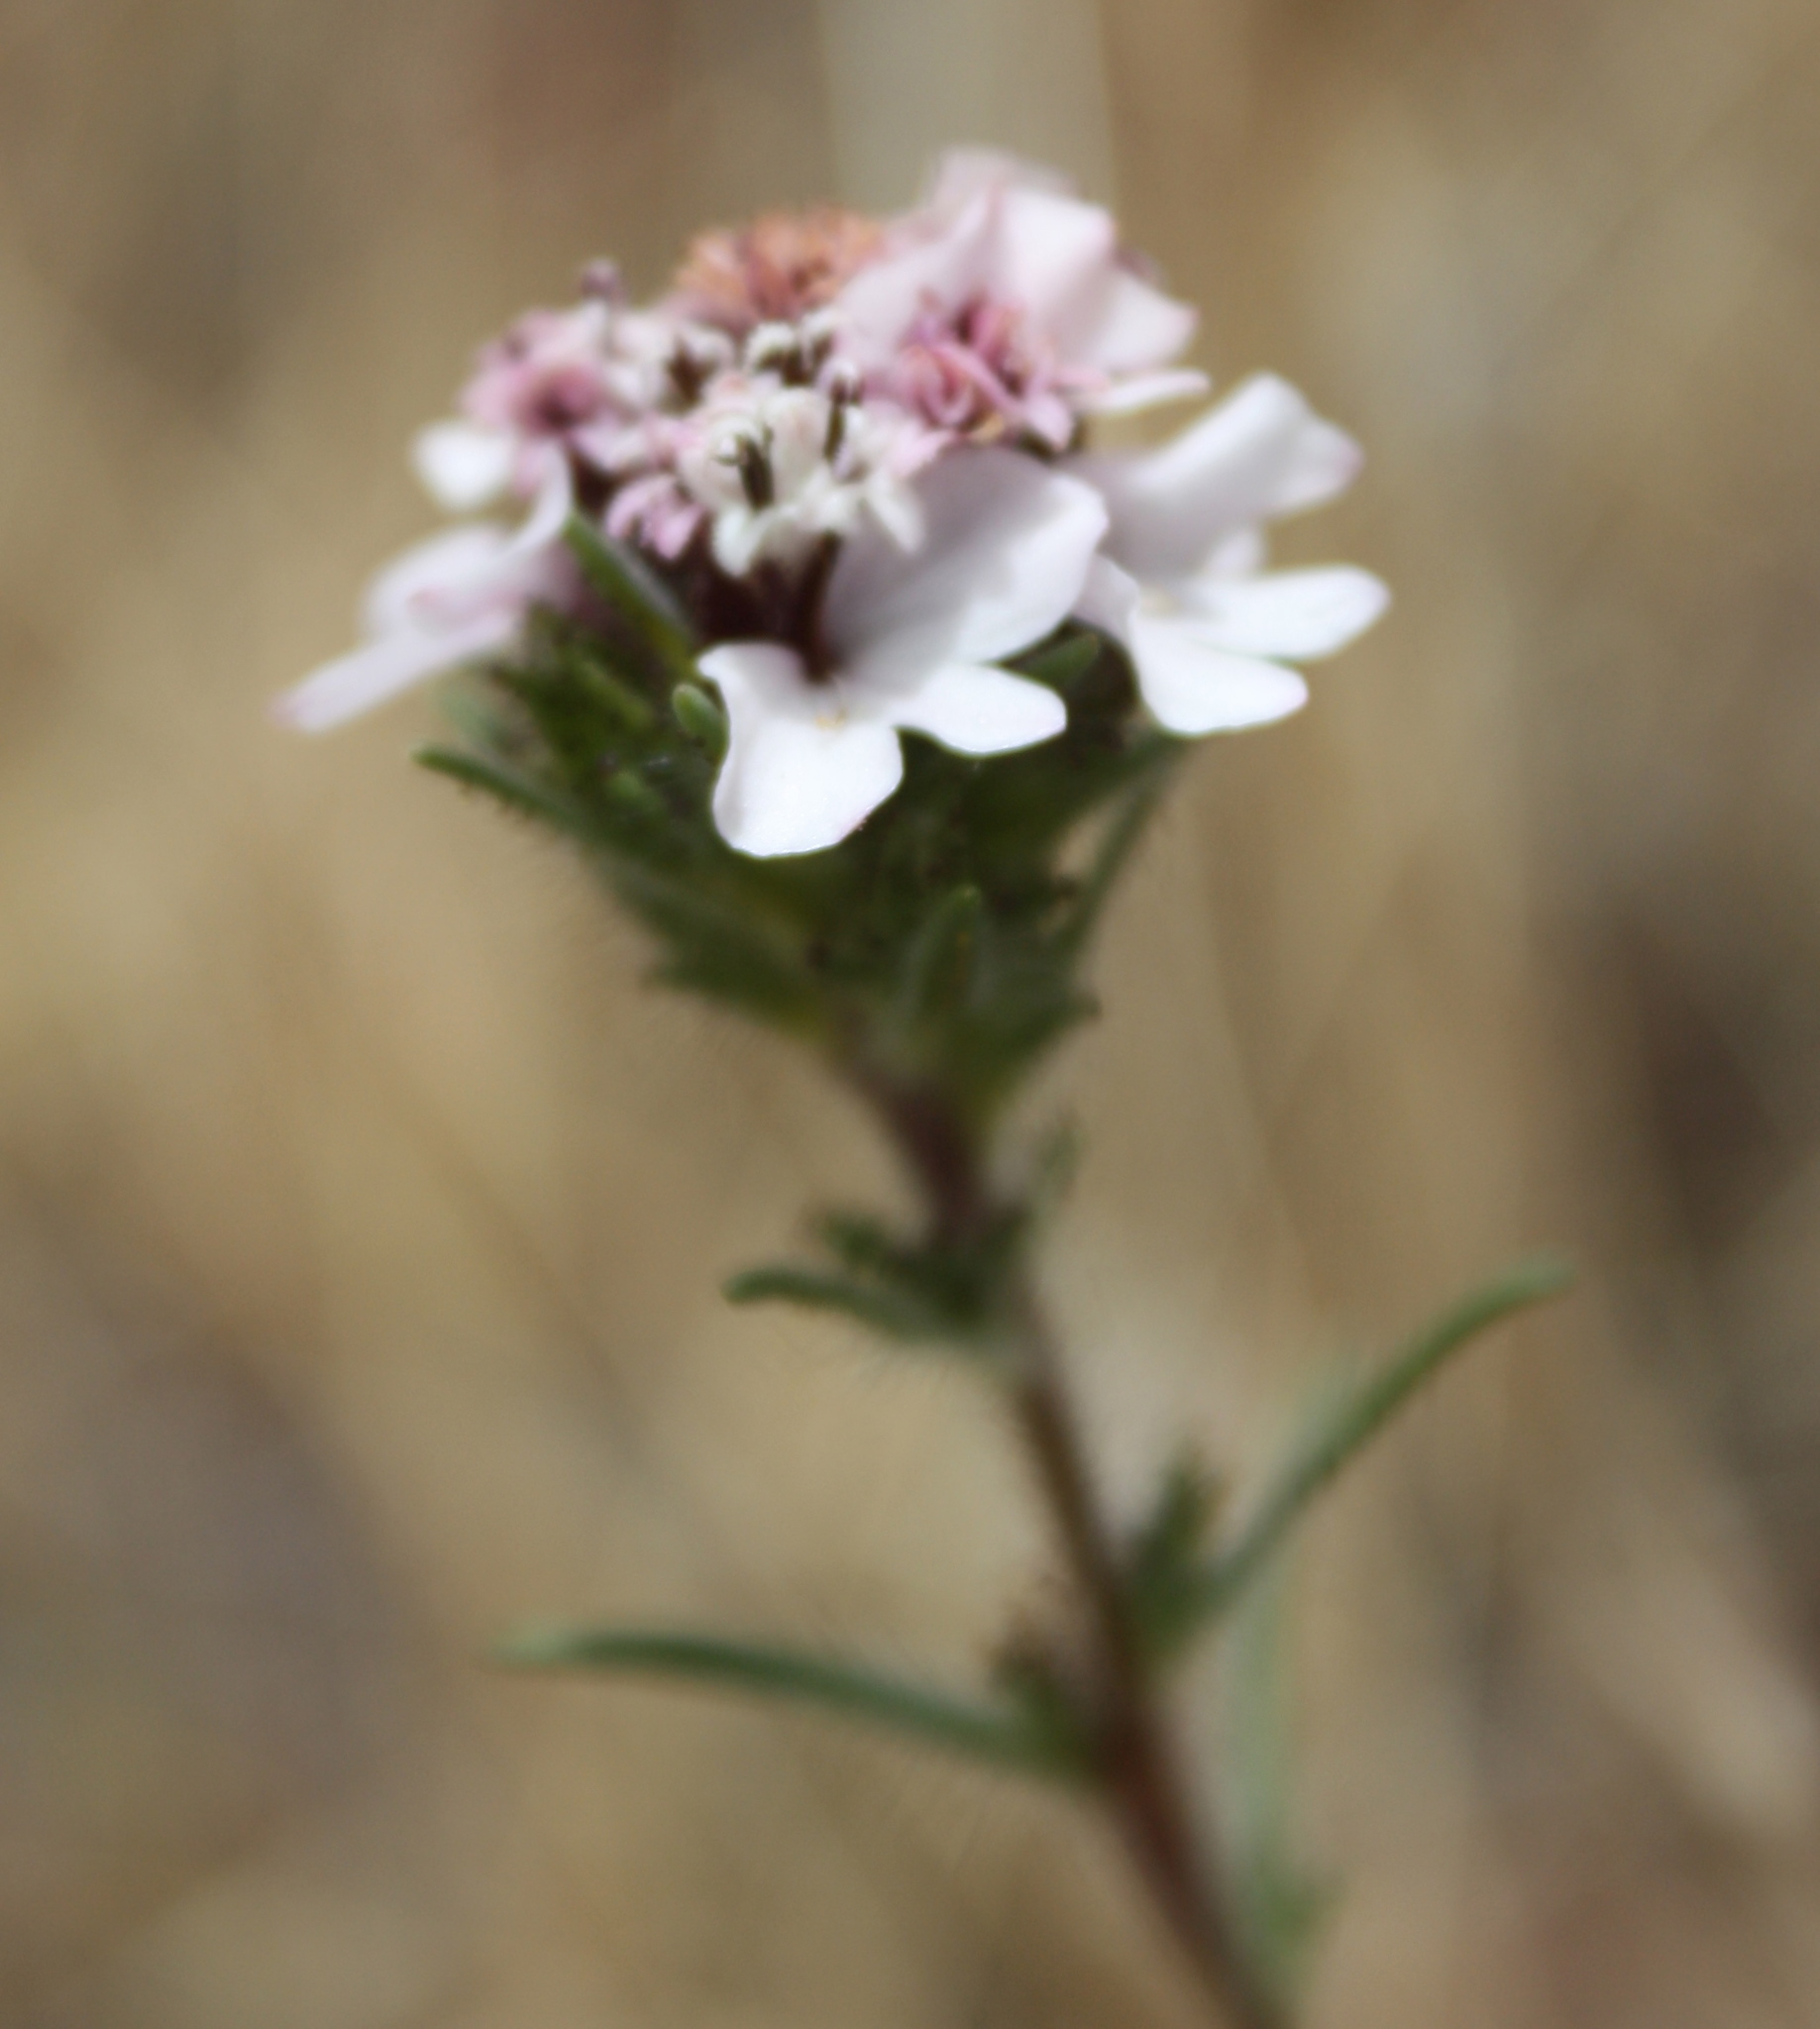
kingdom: Plantae
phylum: Tracheophyta
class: Magnoliopsida
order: Asterales
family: Asteraceae
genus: Calycadenia
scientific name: Calycadenia multiglandulosa
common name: Sticky calycadenia
